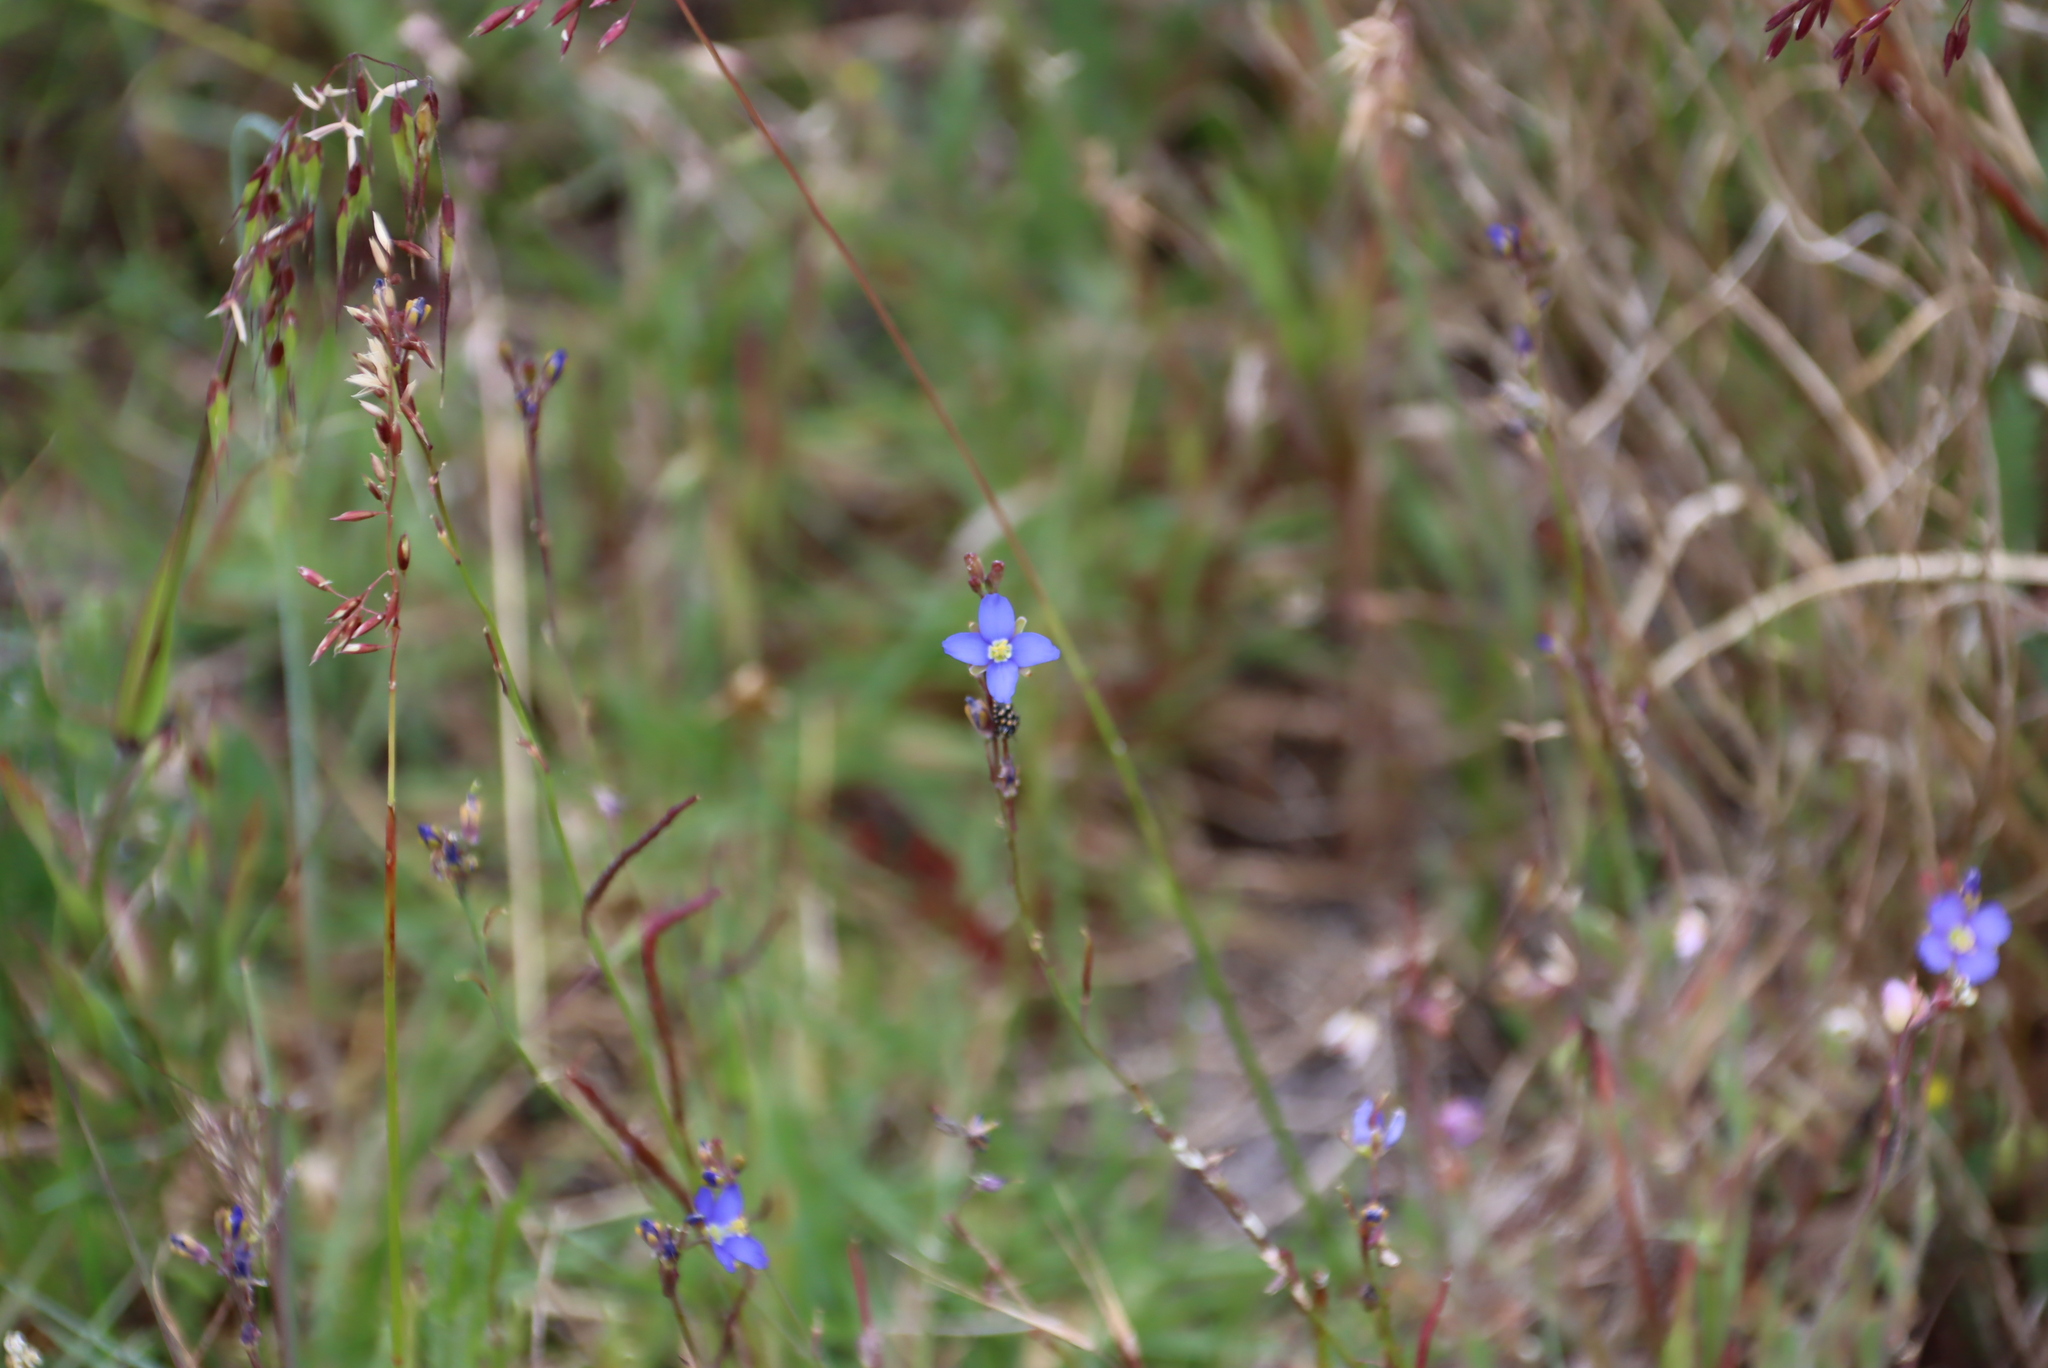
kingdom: Plantae
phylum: Tracheophyta
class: Magnoliopsida
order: Brassicales
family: Brassicaceae
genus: Heliophila
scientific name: Heliophila africana
